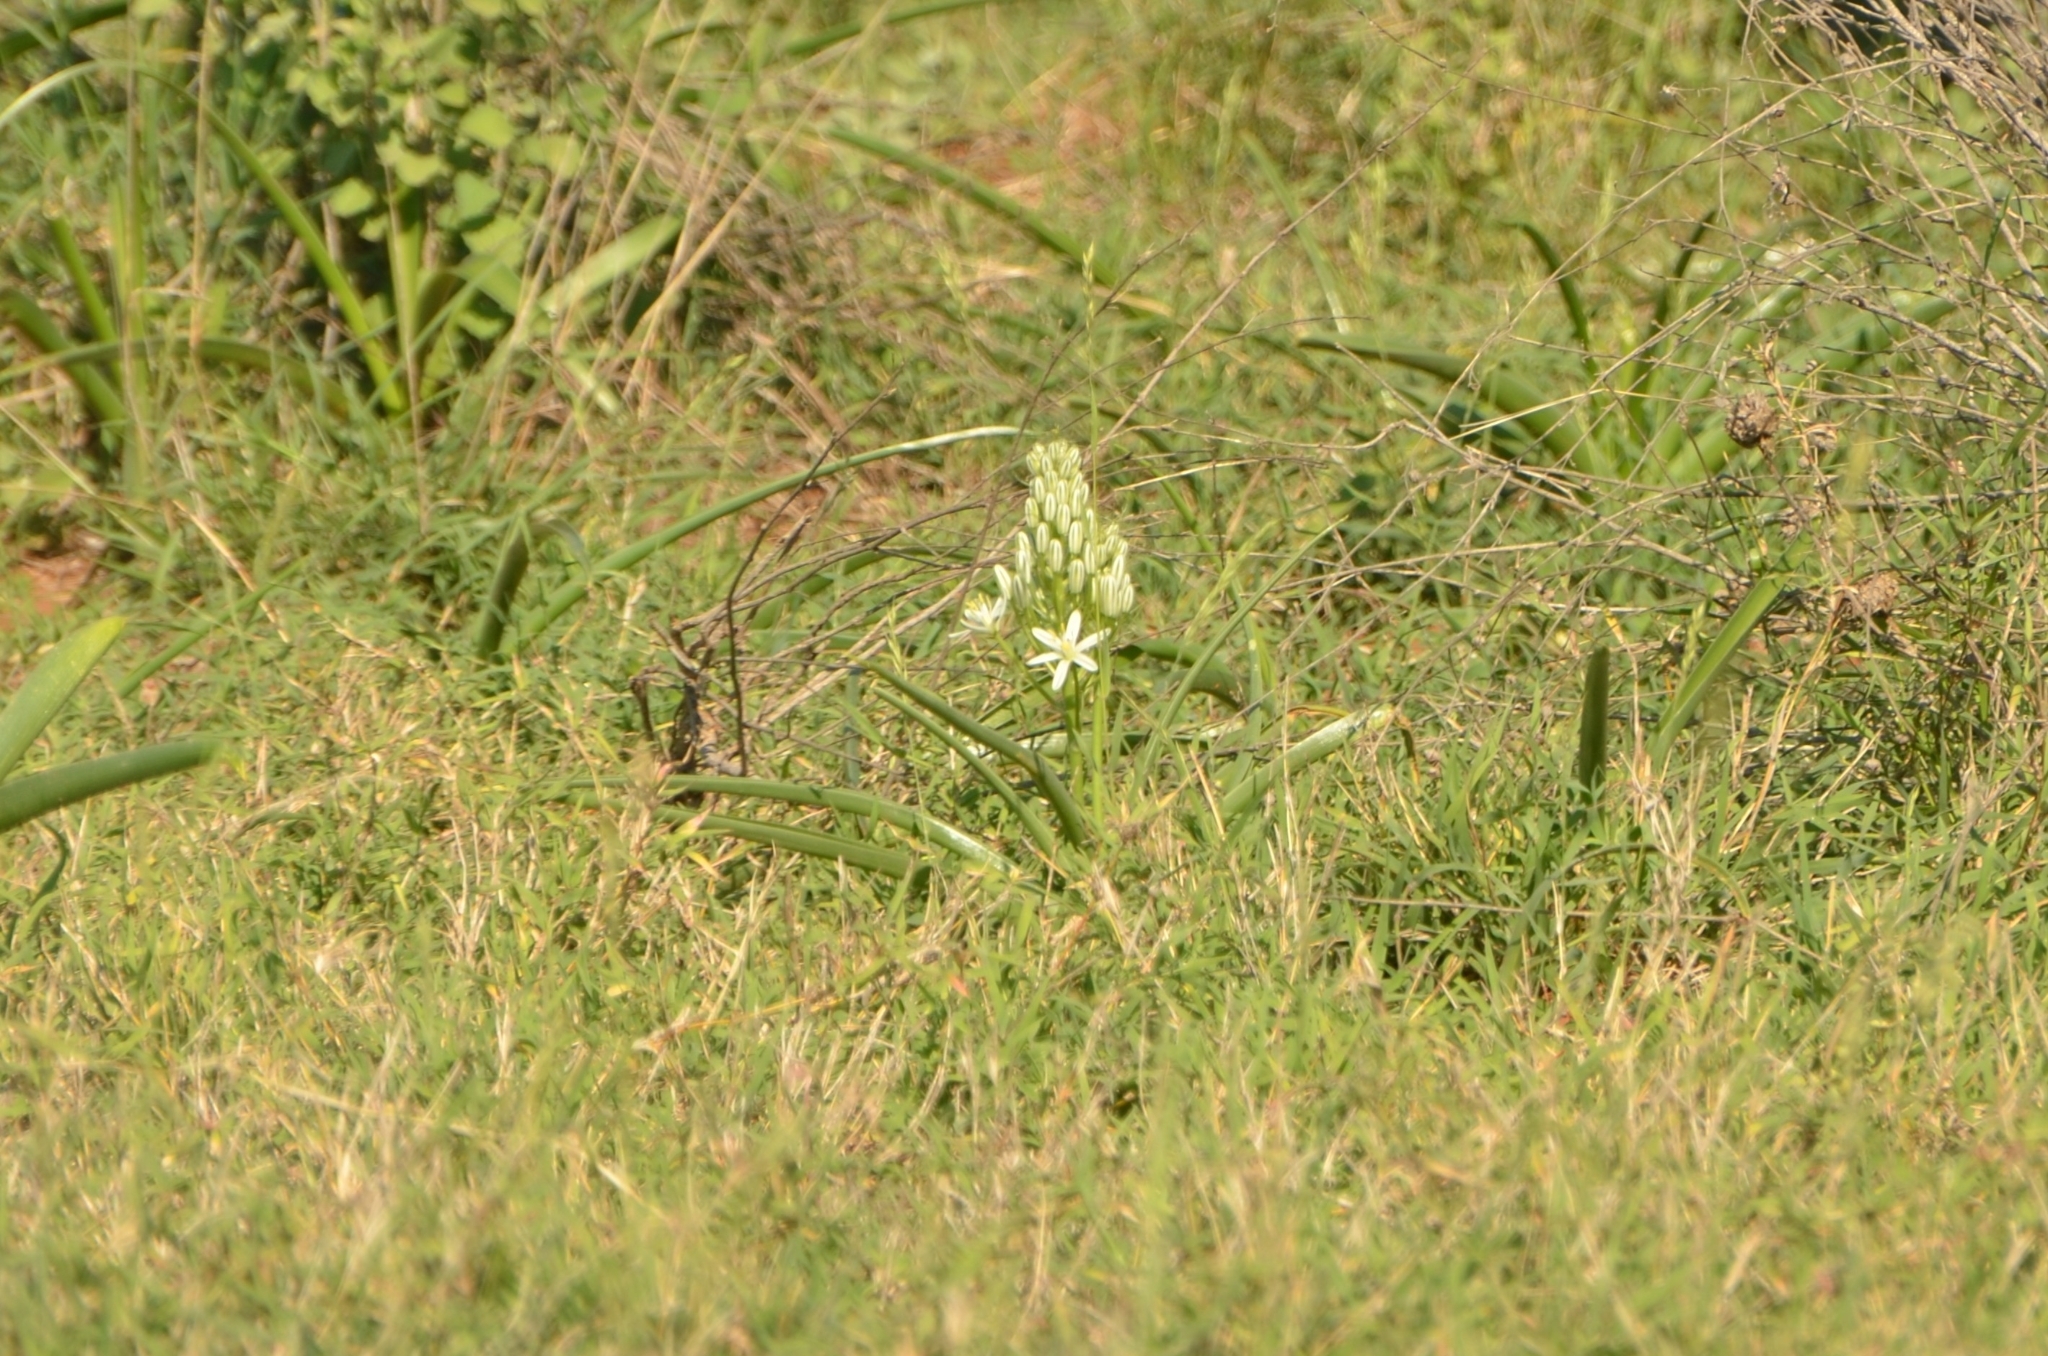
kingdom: Plantae
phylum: Tracheophyta
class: Liliopsida
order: Asparagales
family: Asparagaceae
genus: Albuca
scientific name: Albuca seineri
